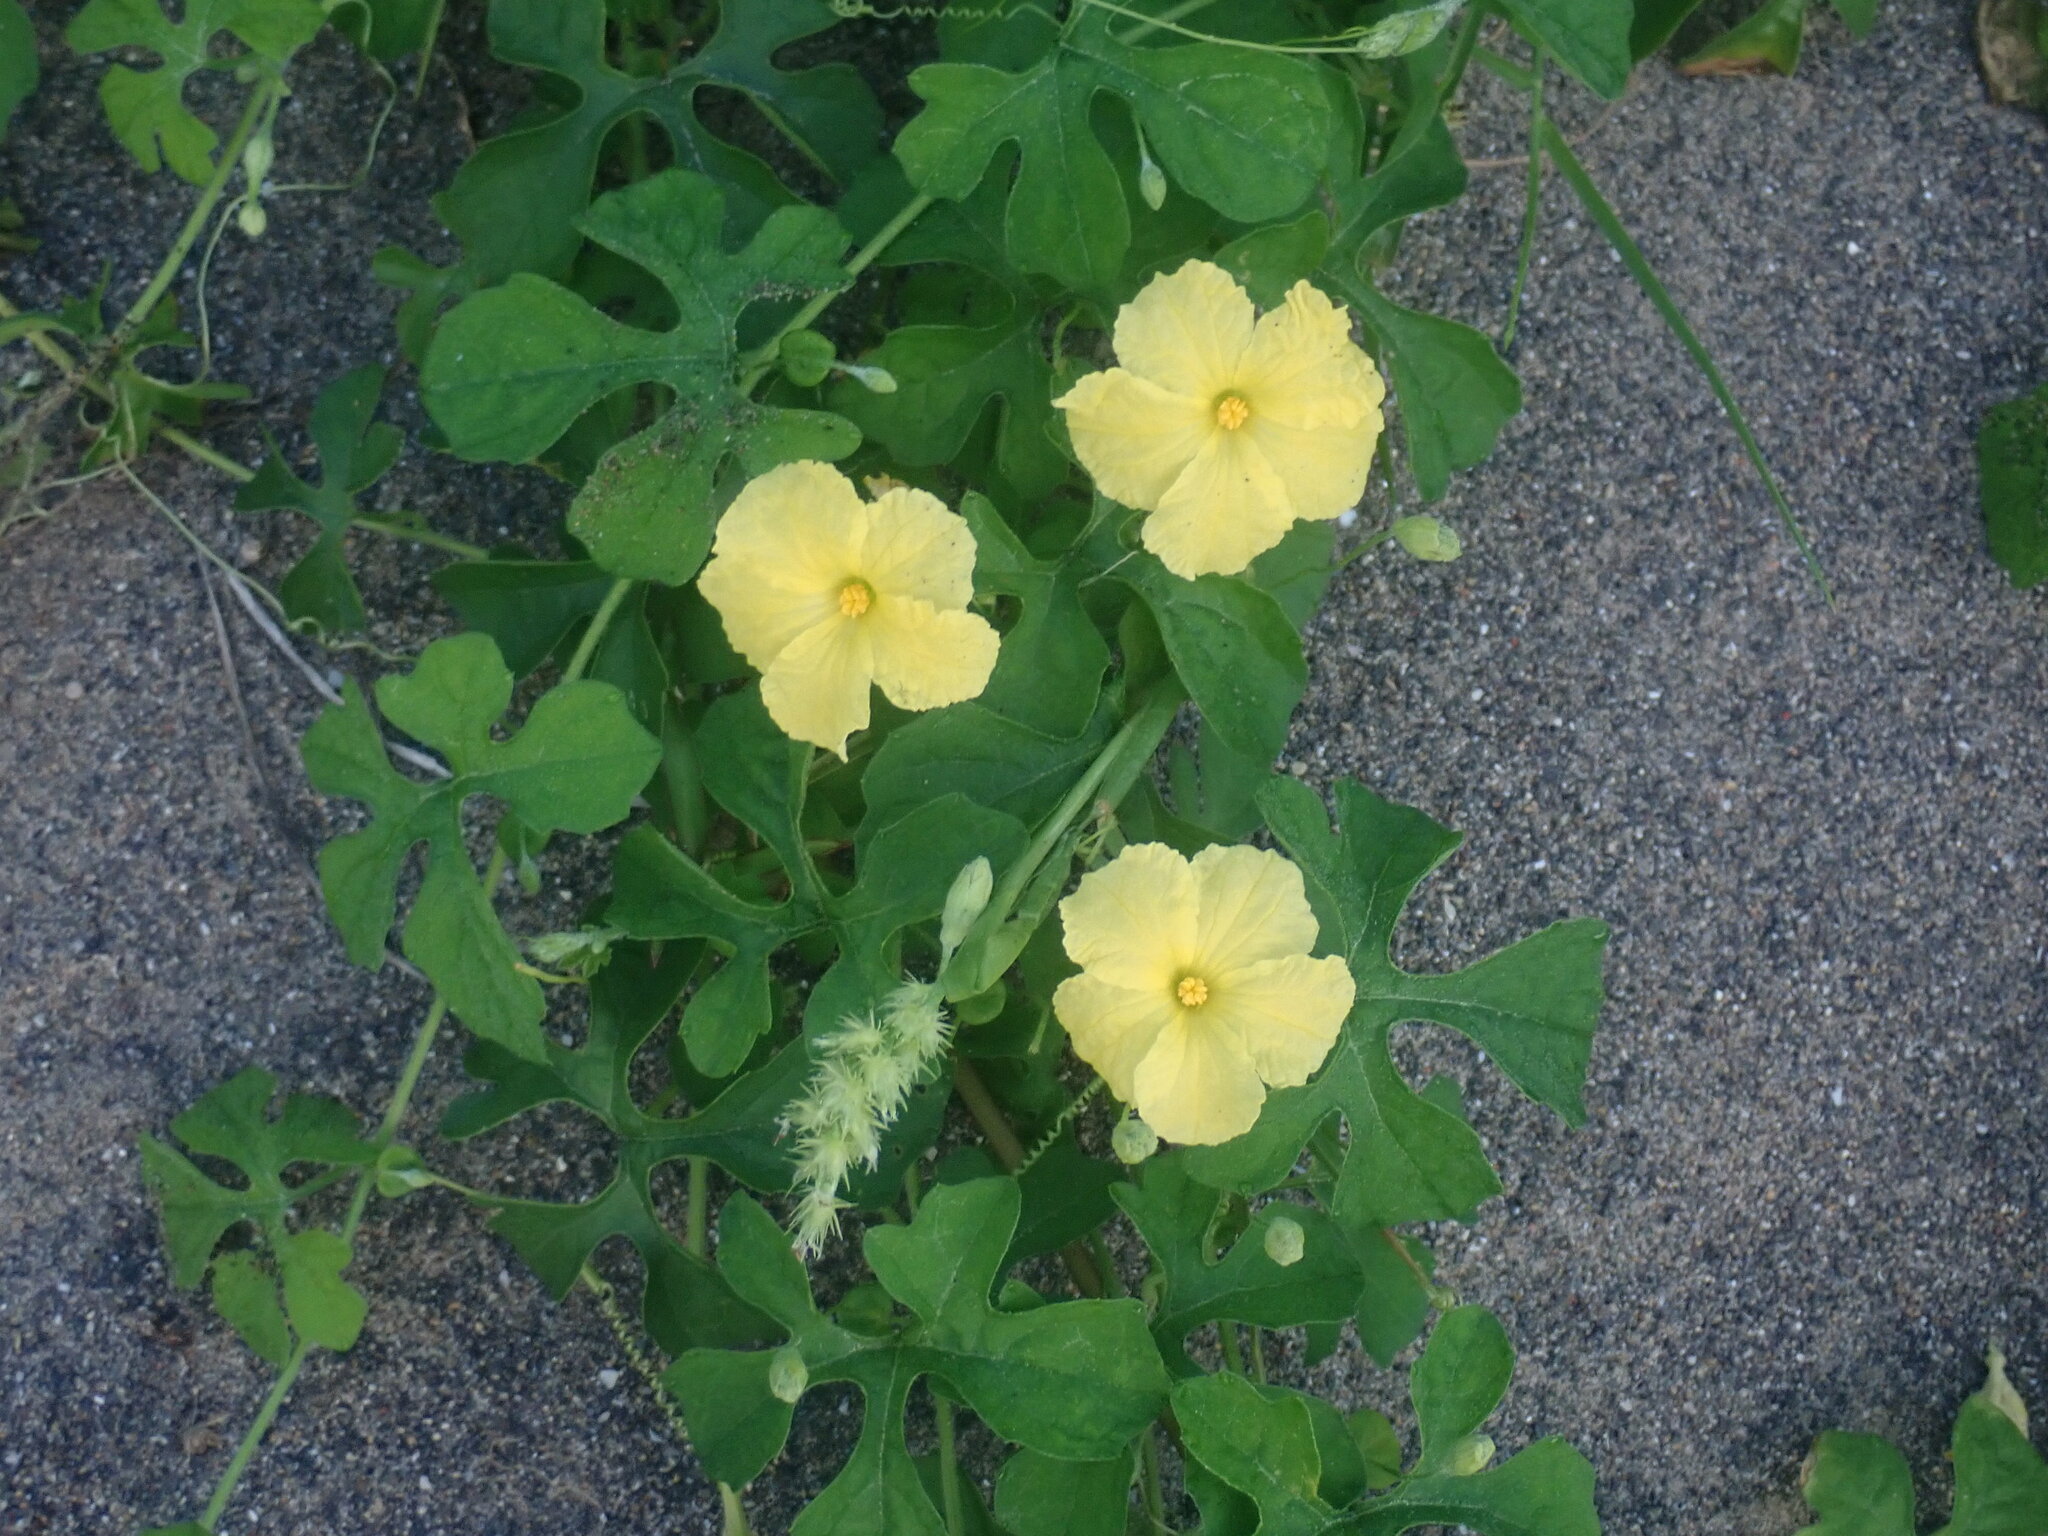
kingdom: Plantae
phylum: Tracheophyta
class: Magnoliopsida
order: Cucurbitales
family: Cucurbitaceae
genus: Momordica
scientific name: Momordica charantia
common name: Balsampear
